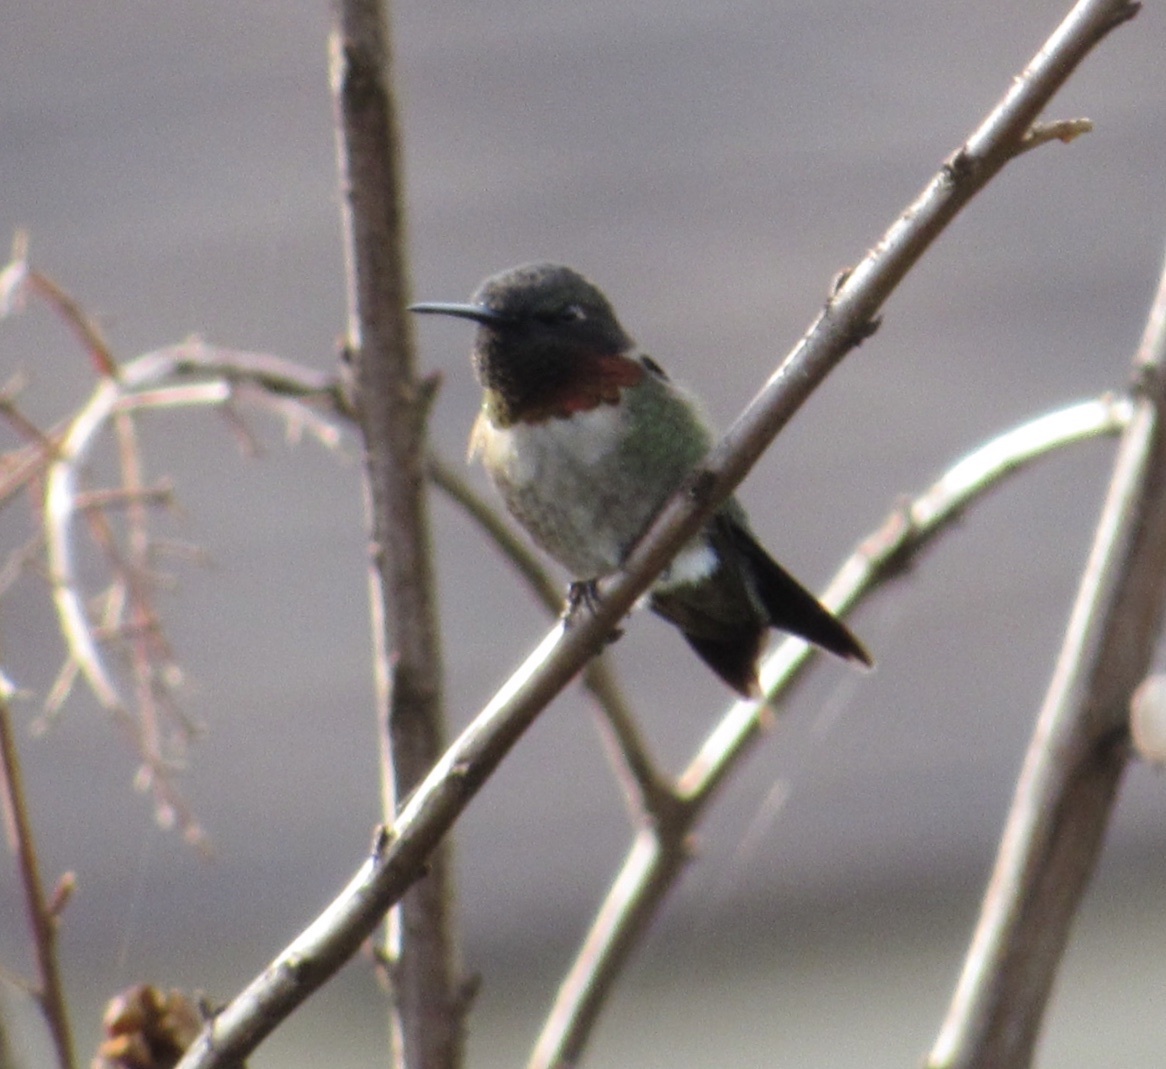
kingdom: Animalia
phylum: Chordata
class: Aves
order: Apodiformes
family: Trochilidae
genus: Archilochus
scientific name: Archilochus colubris
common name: Ruby-throated hummingbird
